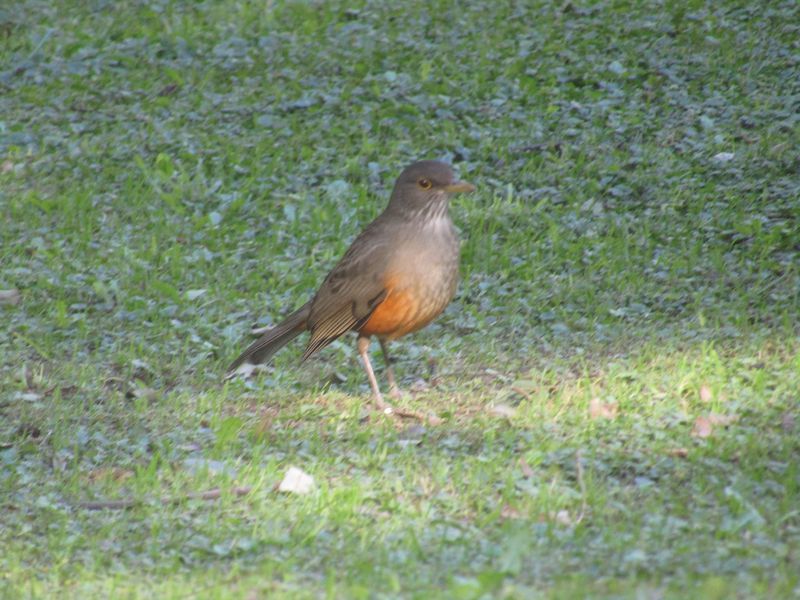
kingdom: Animalia
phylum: Chordata
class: Aves
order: Passeriformes
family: Turdidae
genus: Turdus
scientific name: Turdus rufiventris
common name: Rufous-bellied thrush
